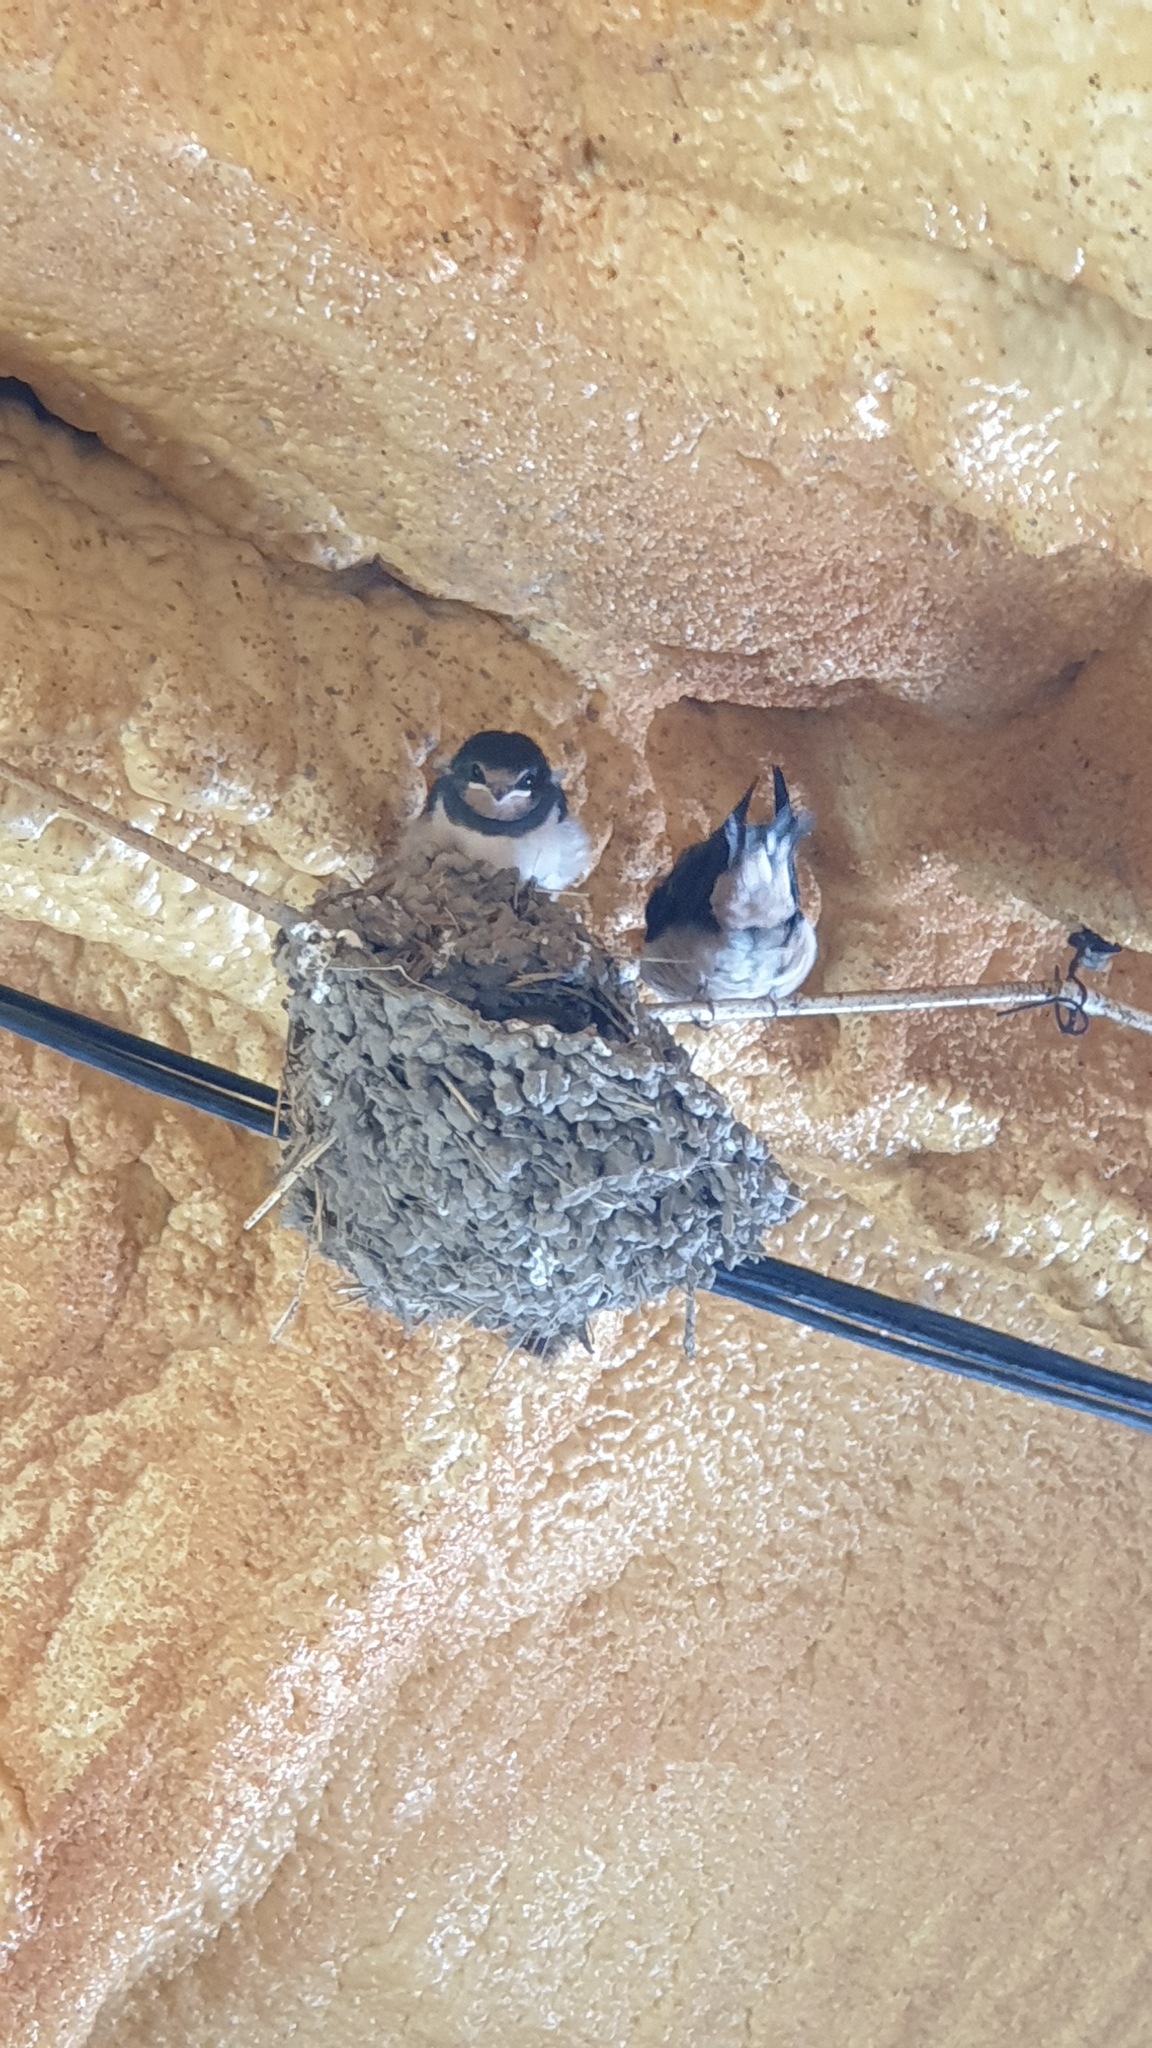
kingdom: Animalia
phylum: Chordata
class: Aves
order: Passeriformes
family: Hirundinidae
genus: Hirundo
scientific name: Hirundo rustica
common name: Barn swallow
